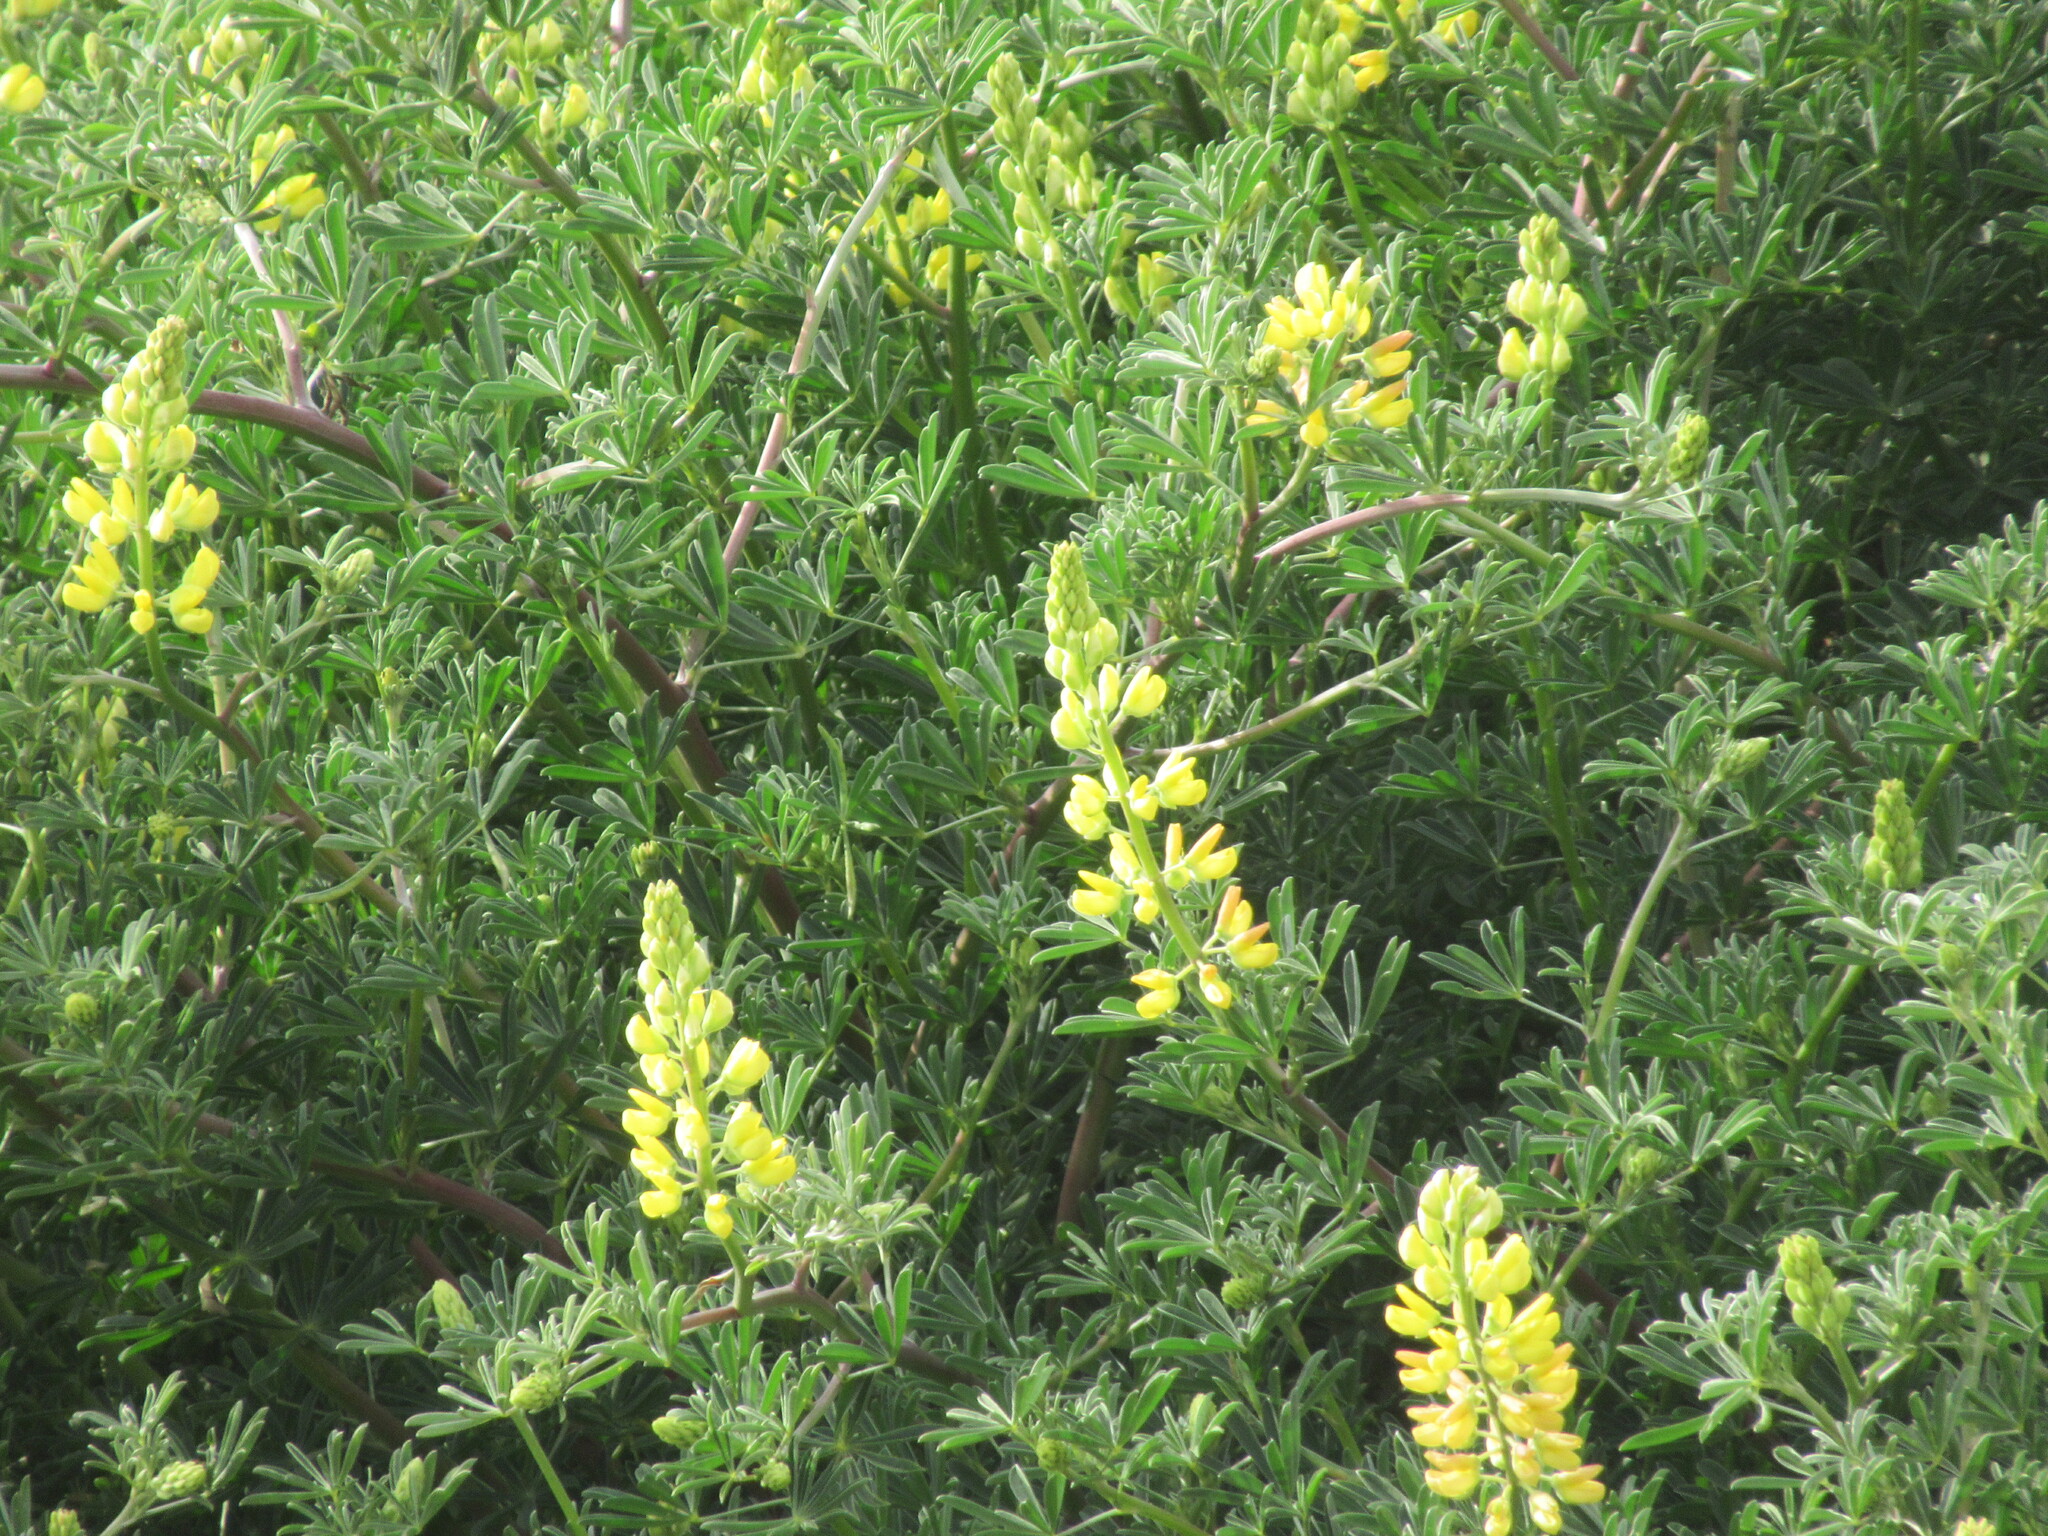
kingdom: Plantae
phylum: Tracheophyta
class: Magnoliopsida
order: Fabales
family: Fabaceae
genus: Lupinus
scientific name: Lupinus arboreus
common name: Yellow bush lupine
